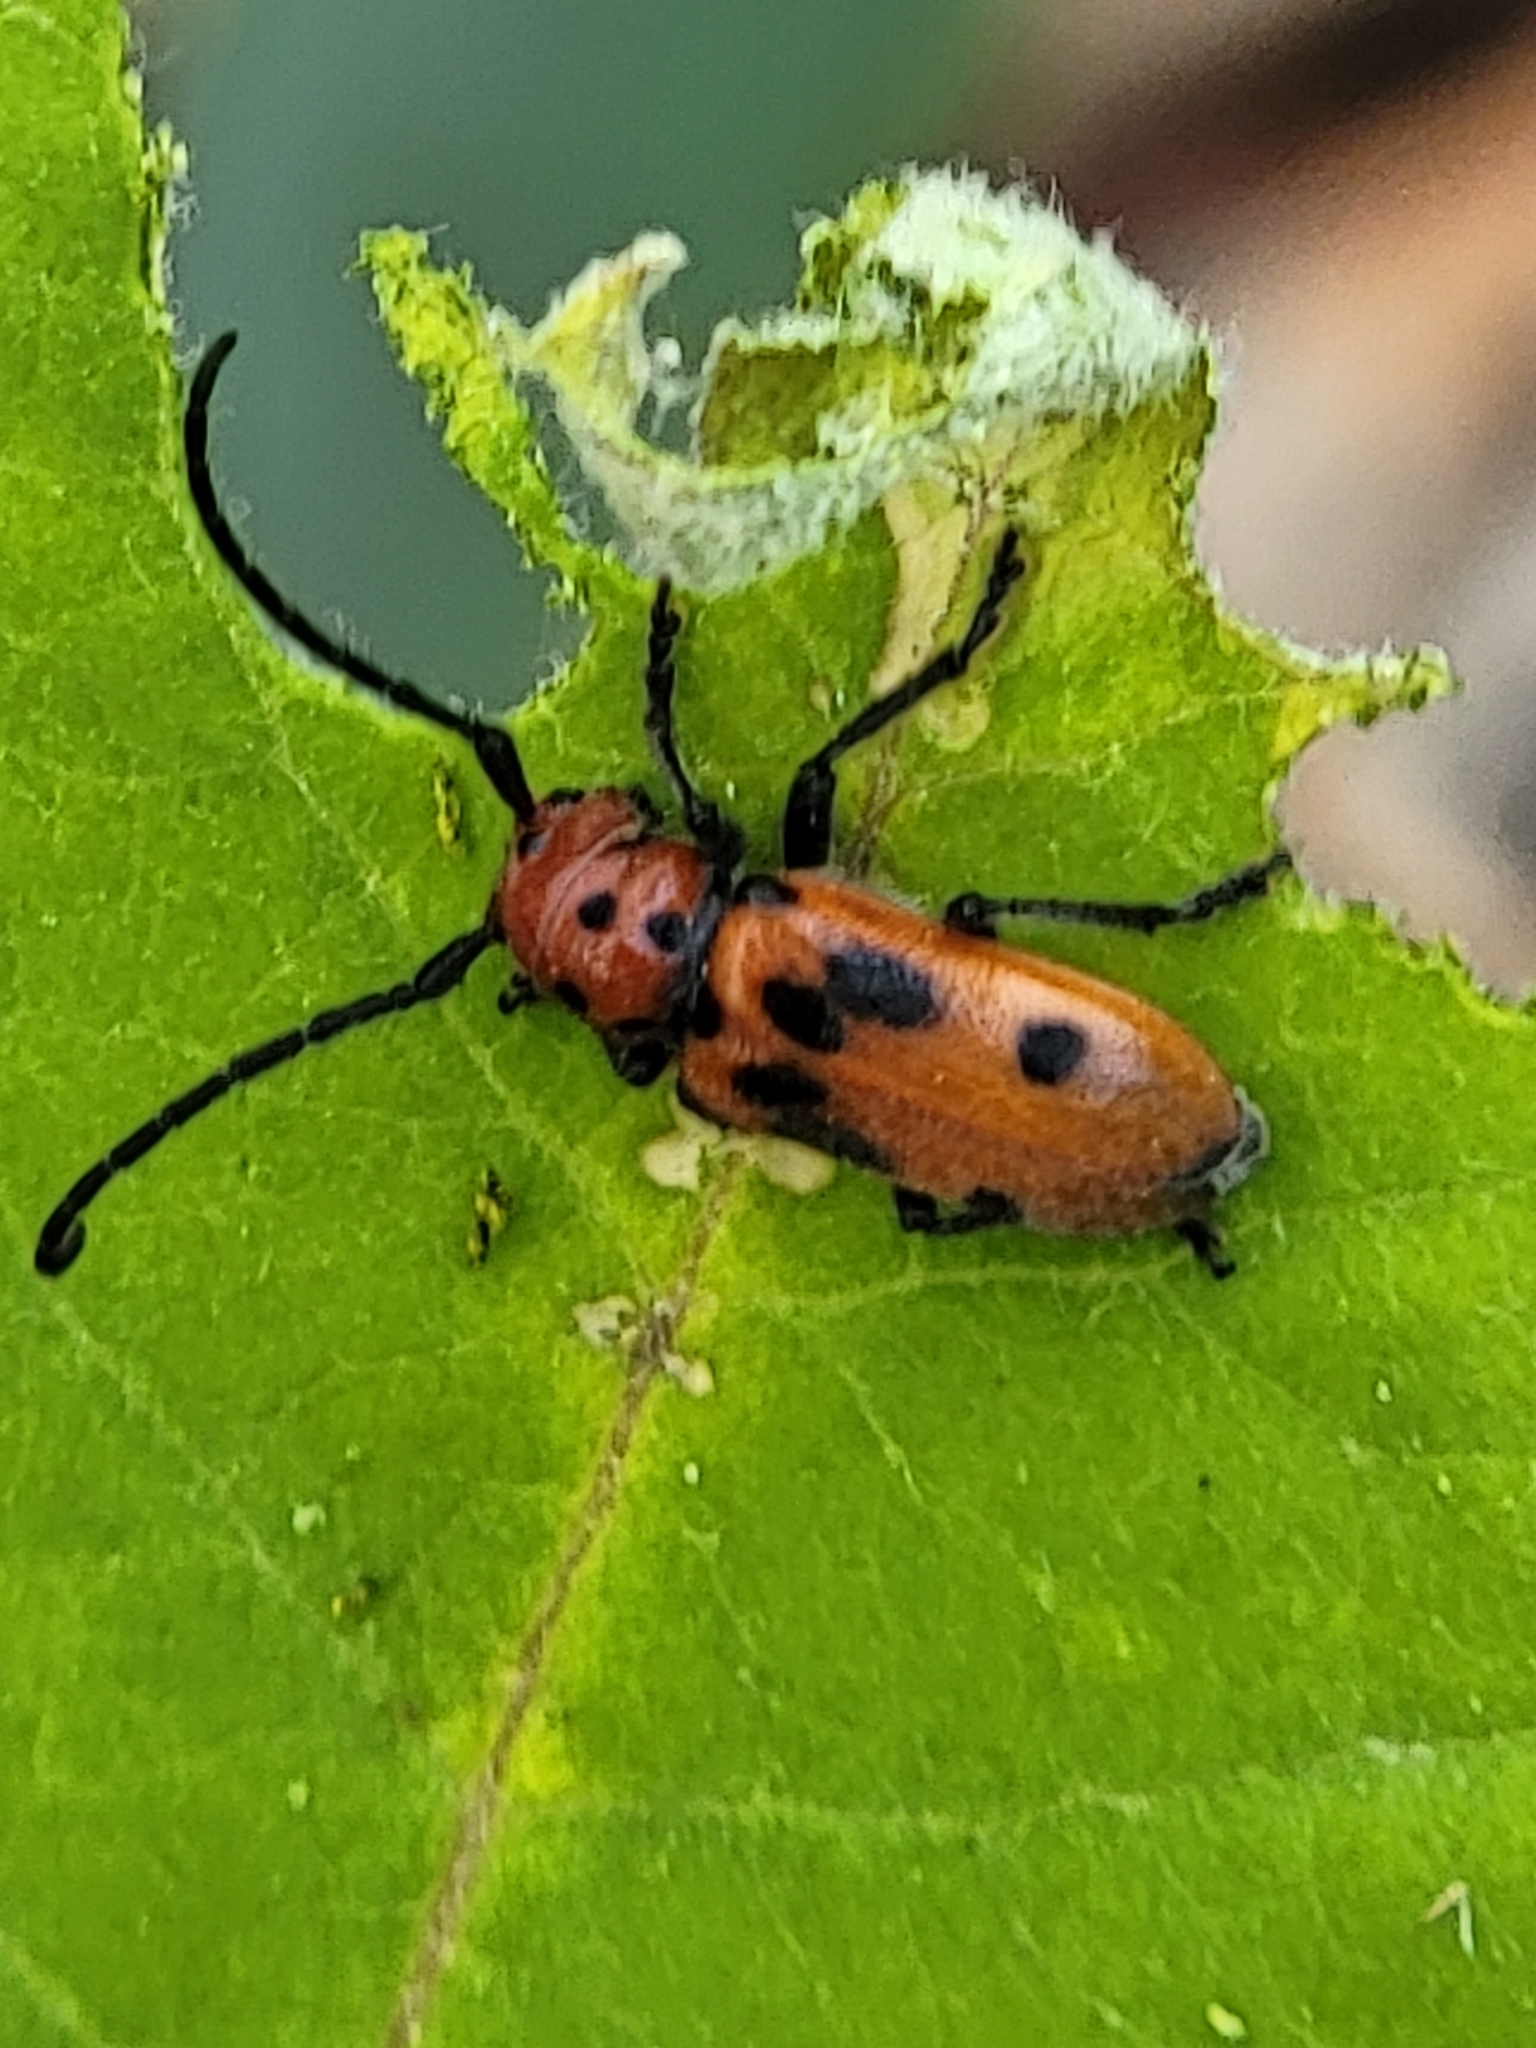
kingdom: Animalia
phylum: Arthropoda
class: Insecta
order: Coleoptera
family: Cerambycidae
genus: Tetraopes
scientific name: Tetraopes tetrophthalmus
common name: Red milkweed beetle
